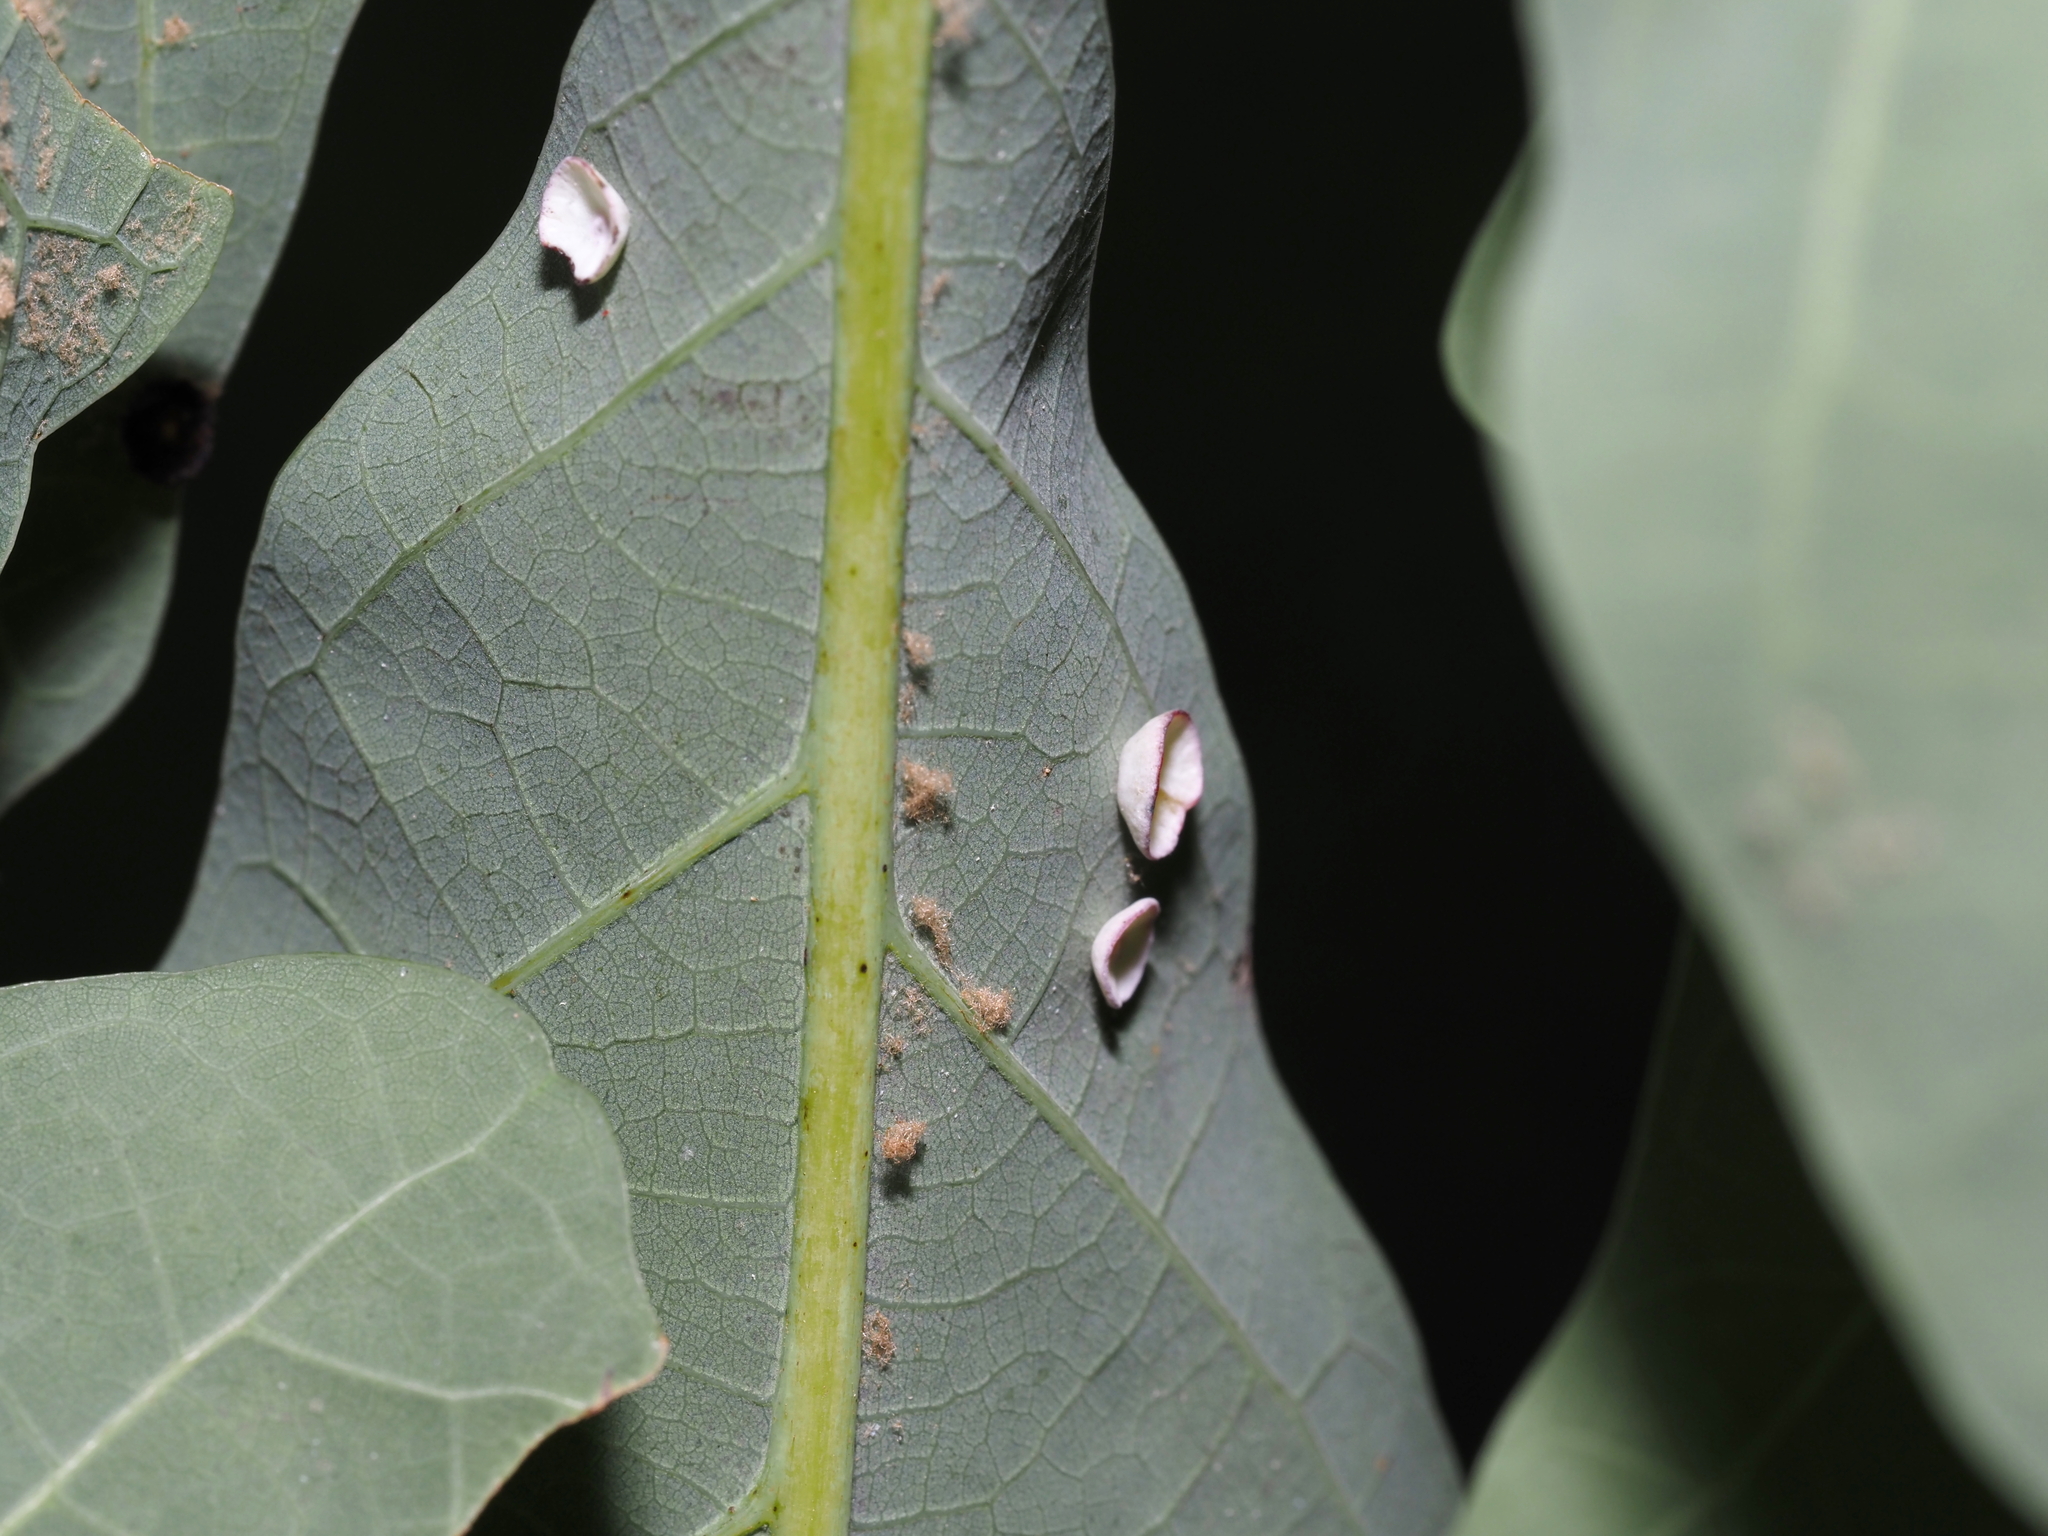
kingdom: Animalia
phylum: Arthropoda
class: Insecta
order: Hymenoptera
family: Cynipidae
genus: Phylloteras
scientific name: Phylloteras poculum
